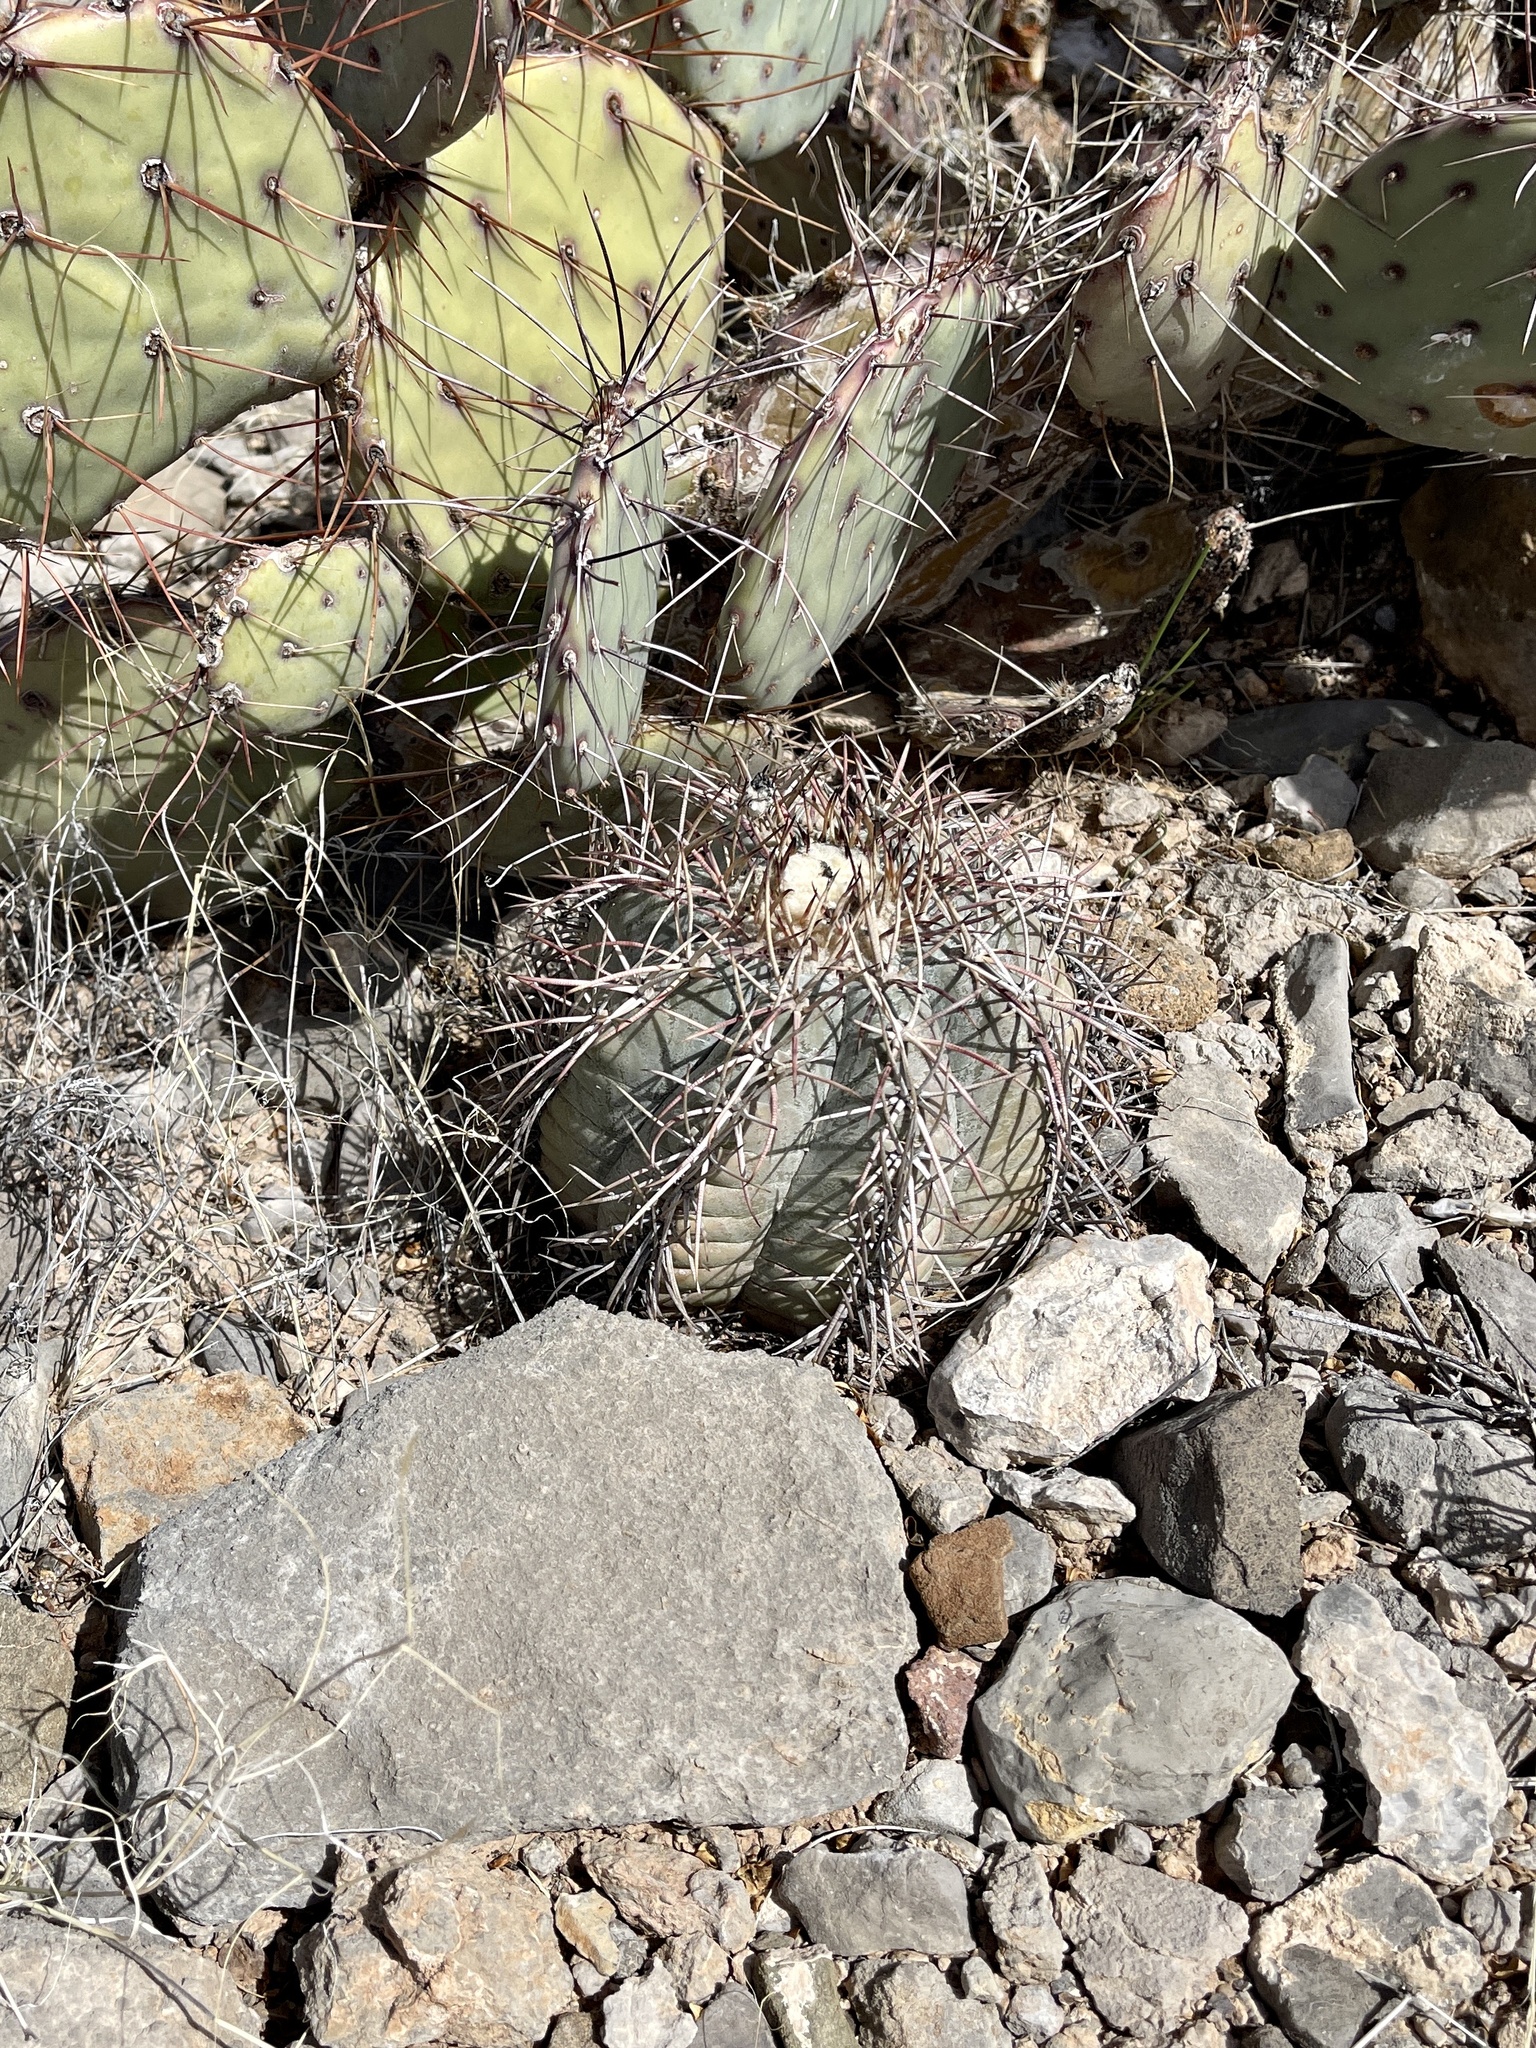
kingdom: Plantae
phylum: Tracheophyta
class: Magnoliopsida
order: Caryophyllales
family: Cactaceae
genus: Echinocactus
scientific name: Echinocactus horizonthalonius
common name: Devilshead
